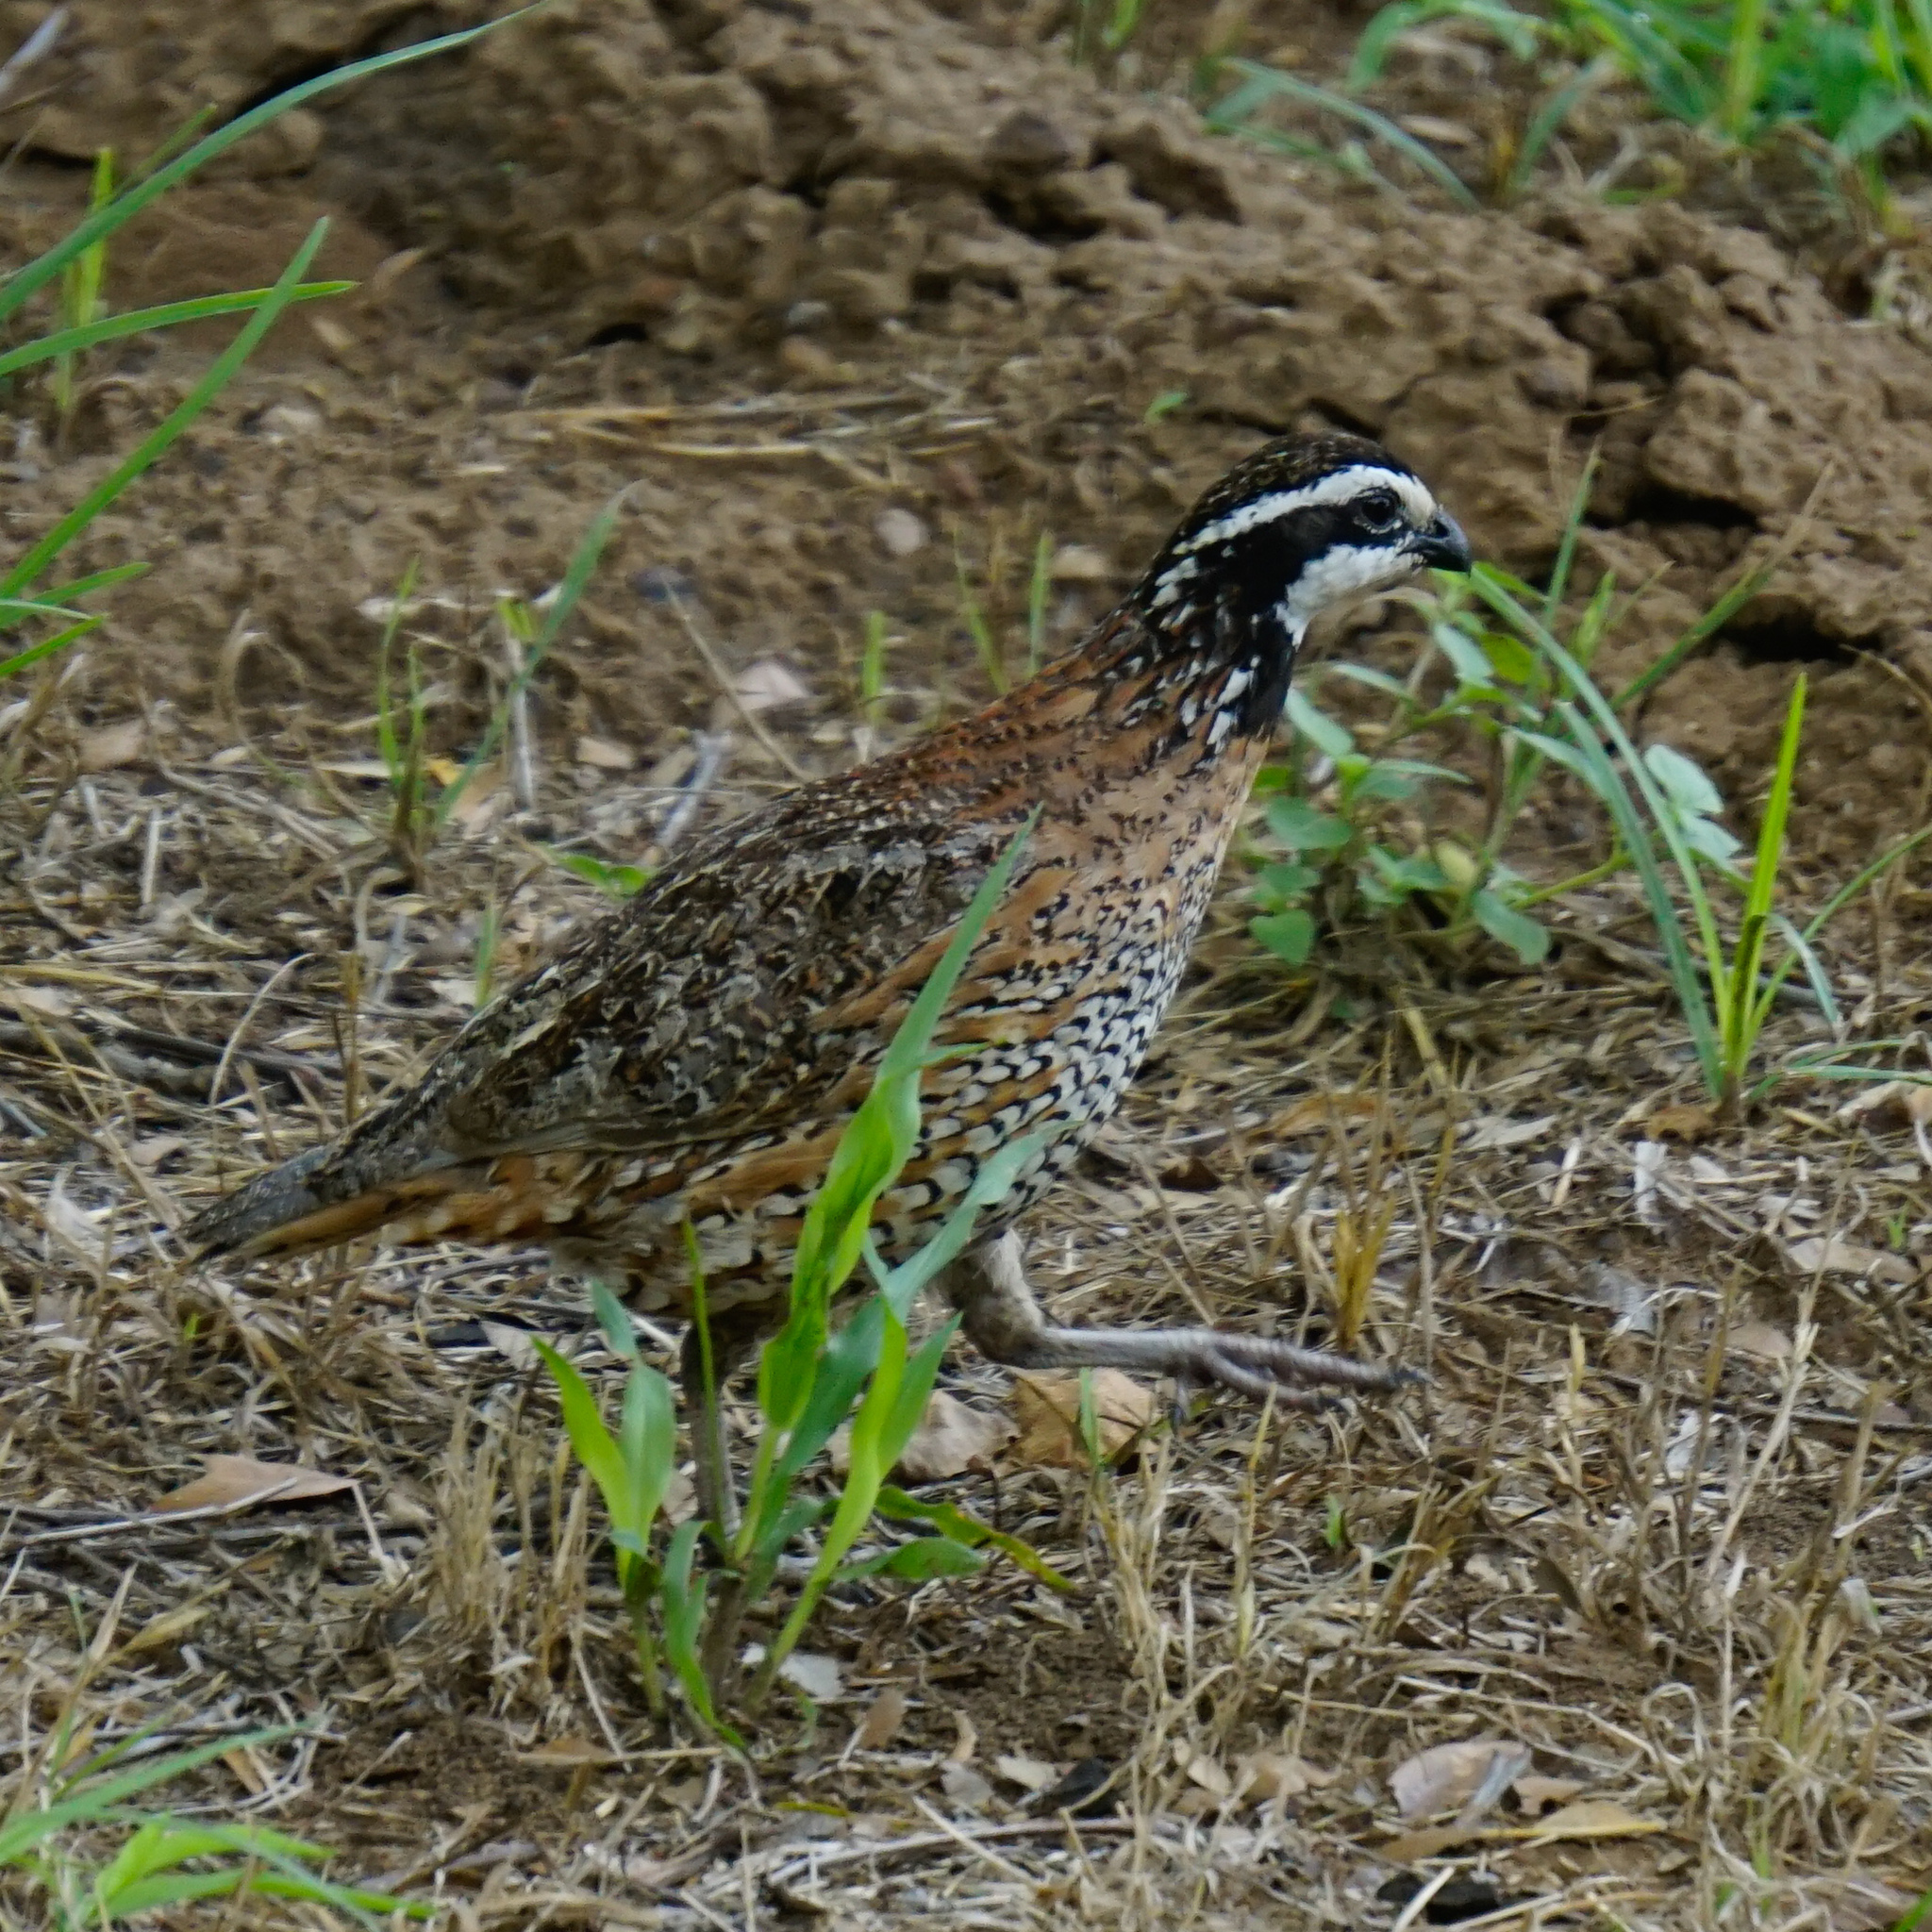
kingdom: Animalia
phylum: Chordata
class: Aves
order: Galliformes
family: Odontophoridae
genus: Colinus
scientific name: Colinus virginianus
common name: Northern bobwhite
